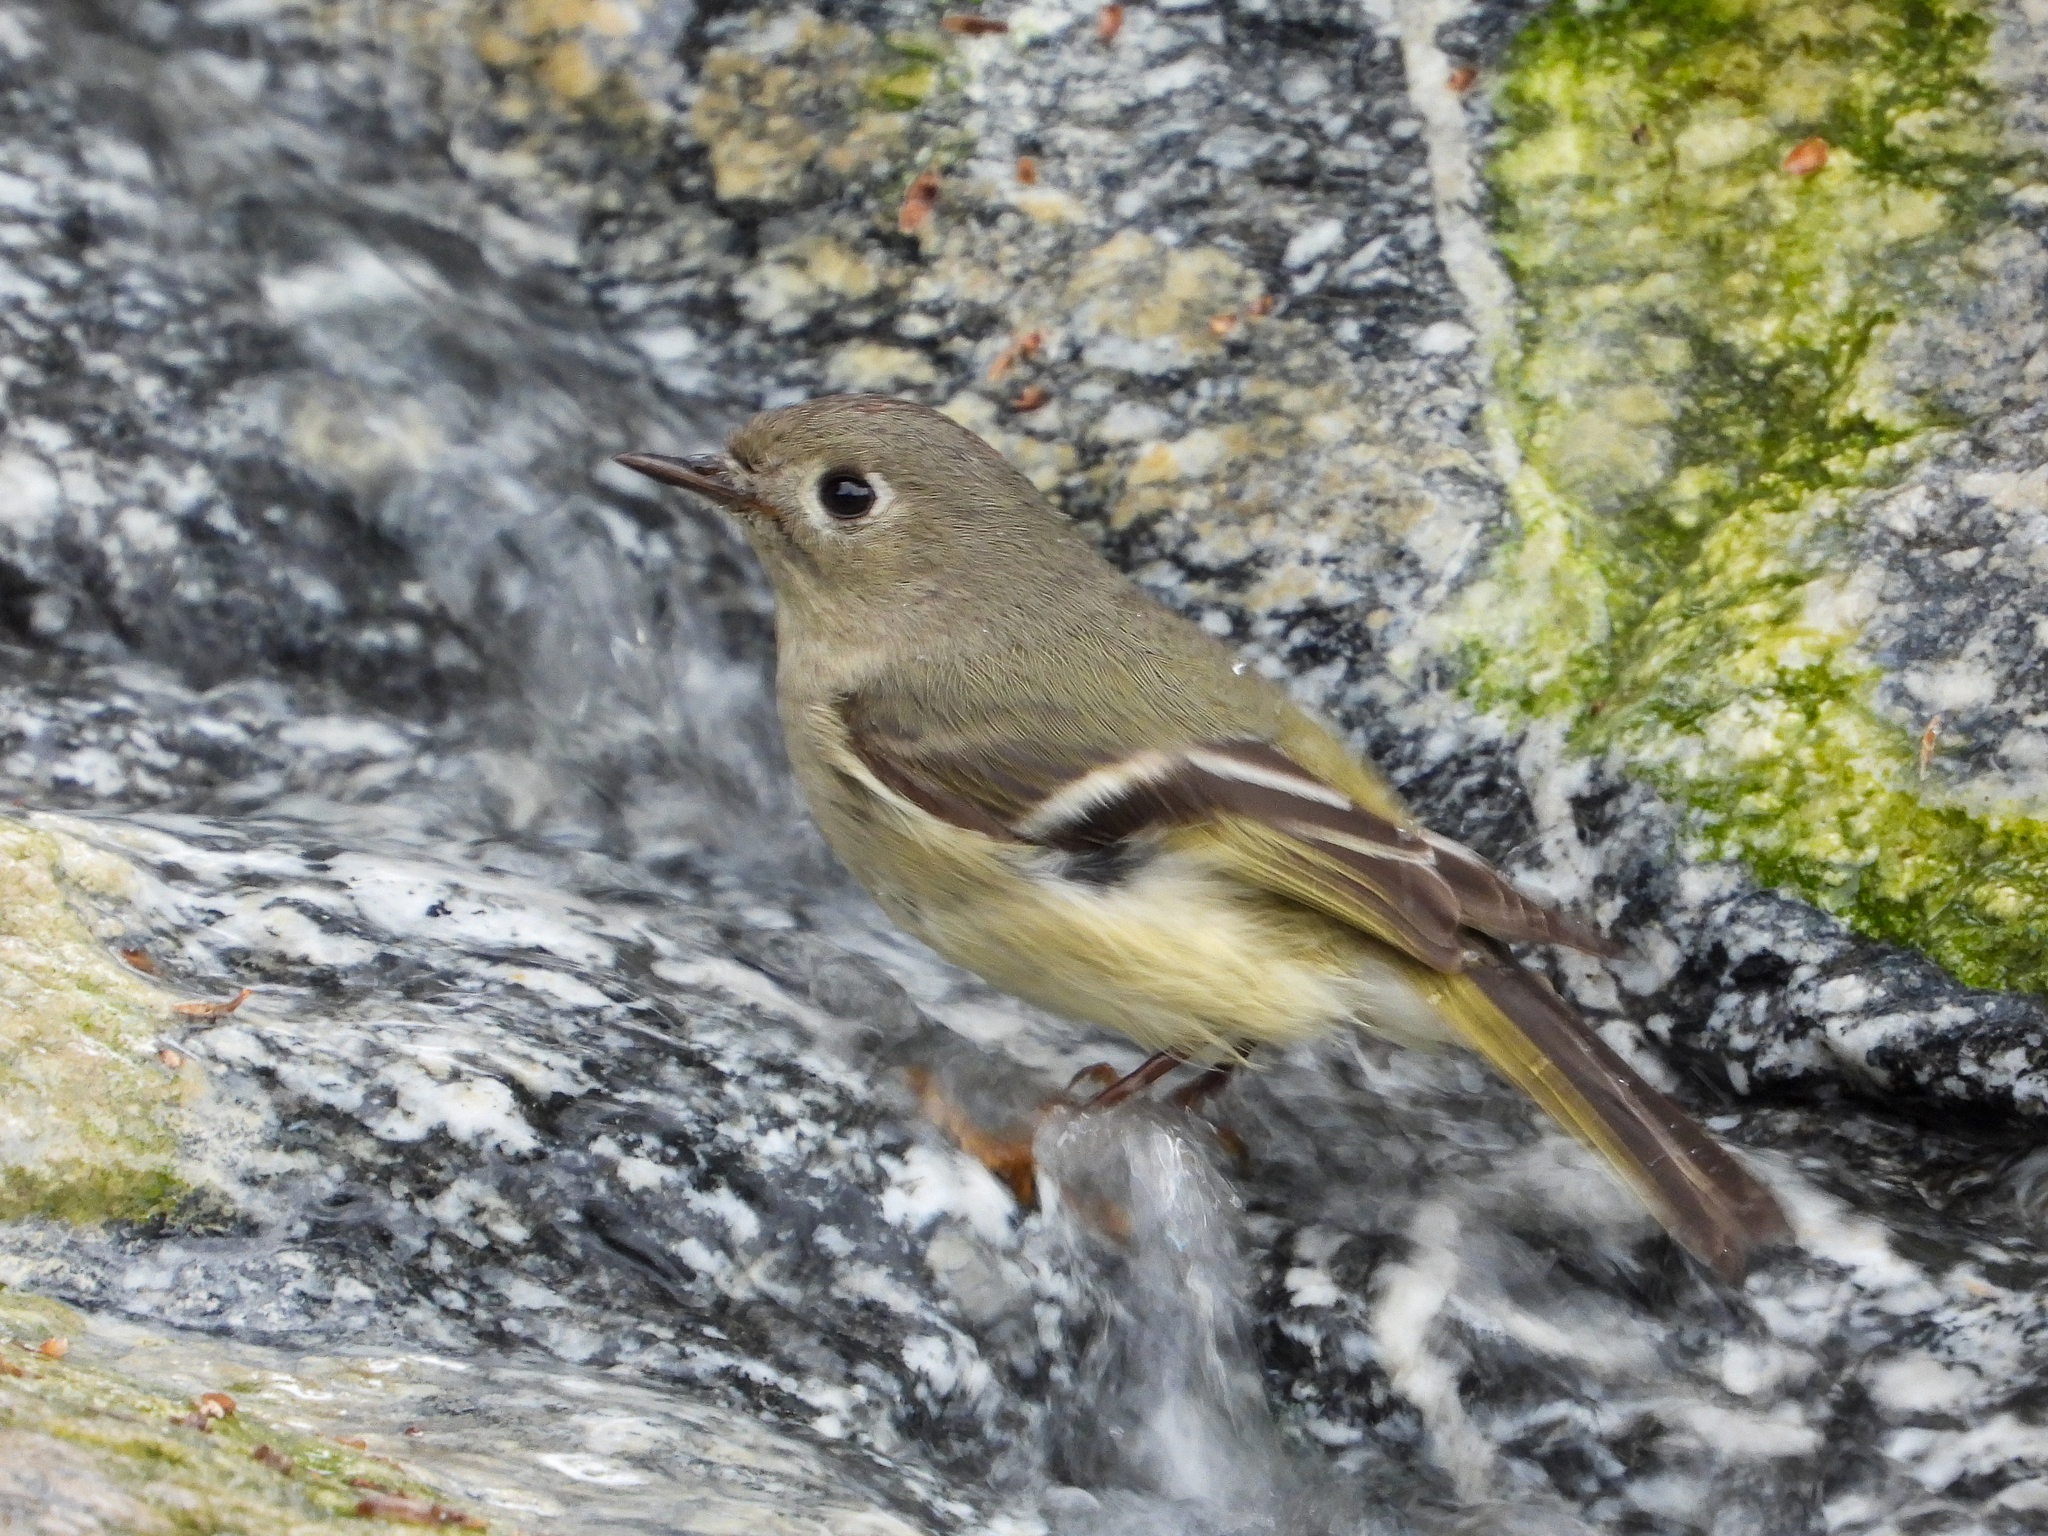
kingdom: Animalia
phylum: Chordata
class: Aves
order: Passeriformes
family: Regulidae
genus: Regulus
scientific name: Regulus calendula
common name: Ruby-crowned kinglet
